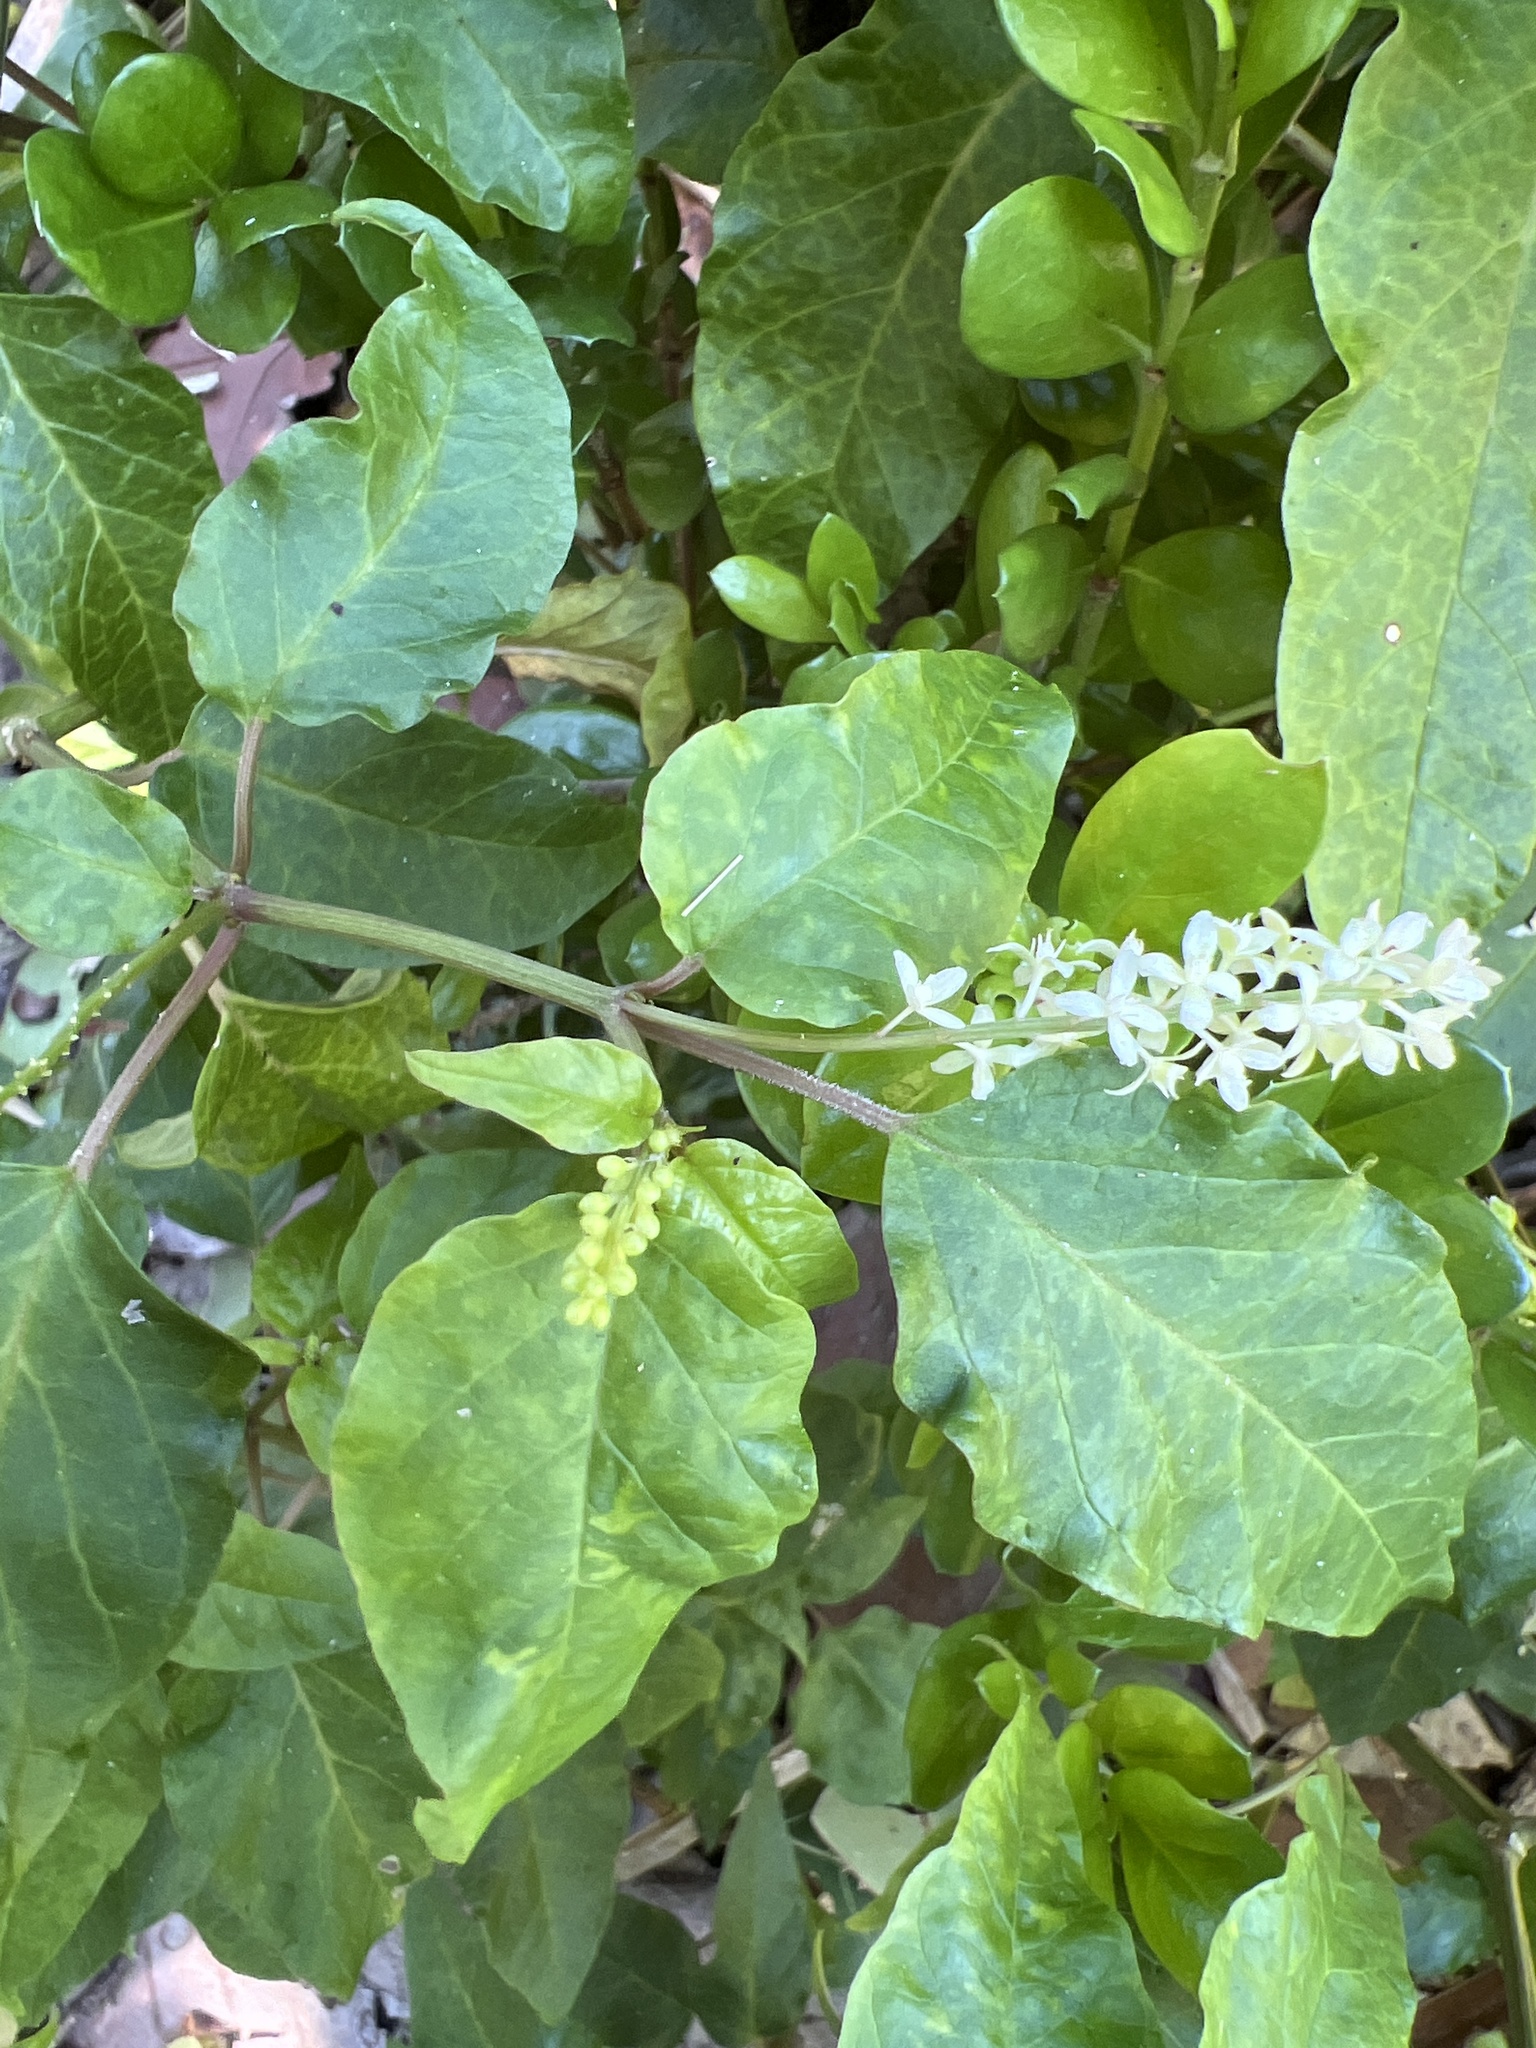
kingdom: Plantae
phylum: Tracheophyta
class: Magnoliopsida
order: Caryophyllales
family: Phytolaccaceae
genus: Rivina
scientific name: Rivina humilis
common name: Rougeplant
